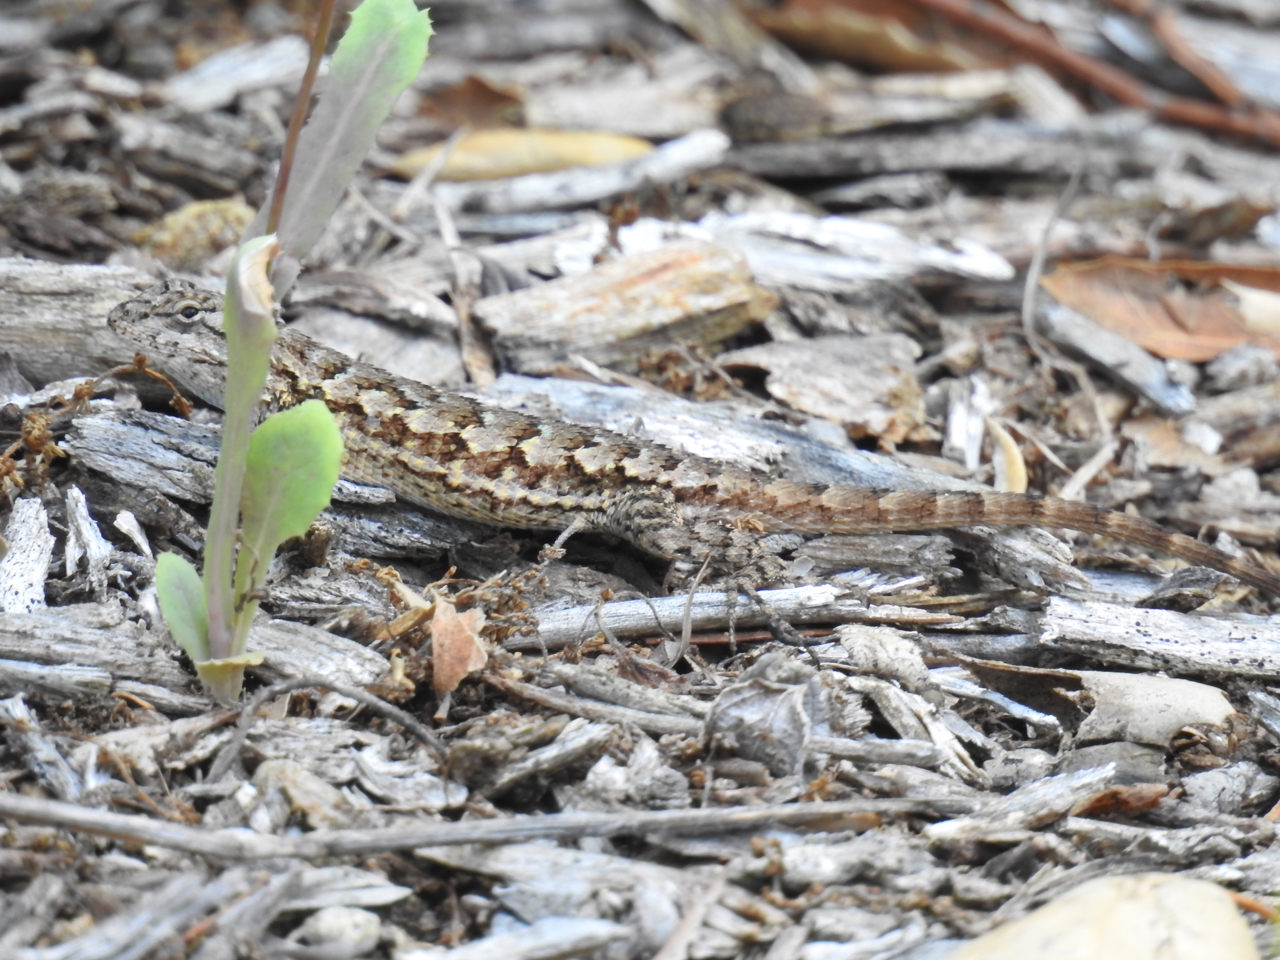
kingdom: Animalia
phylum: Chordata
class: Squamata
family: Phrynosomatidae
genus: Sceloporus
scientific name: Sceloporus occidentalis
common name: Western fence lizard
